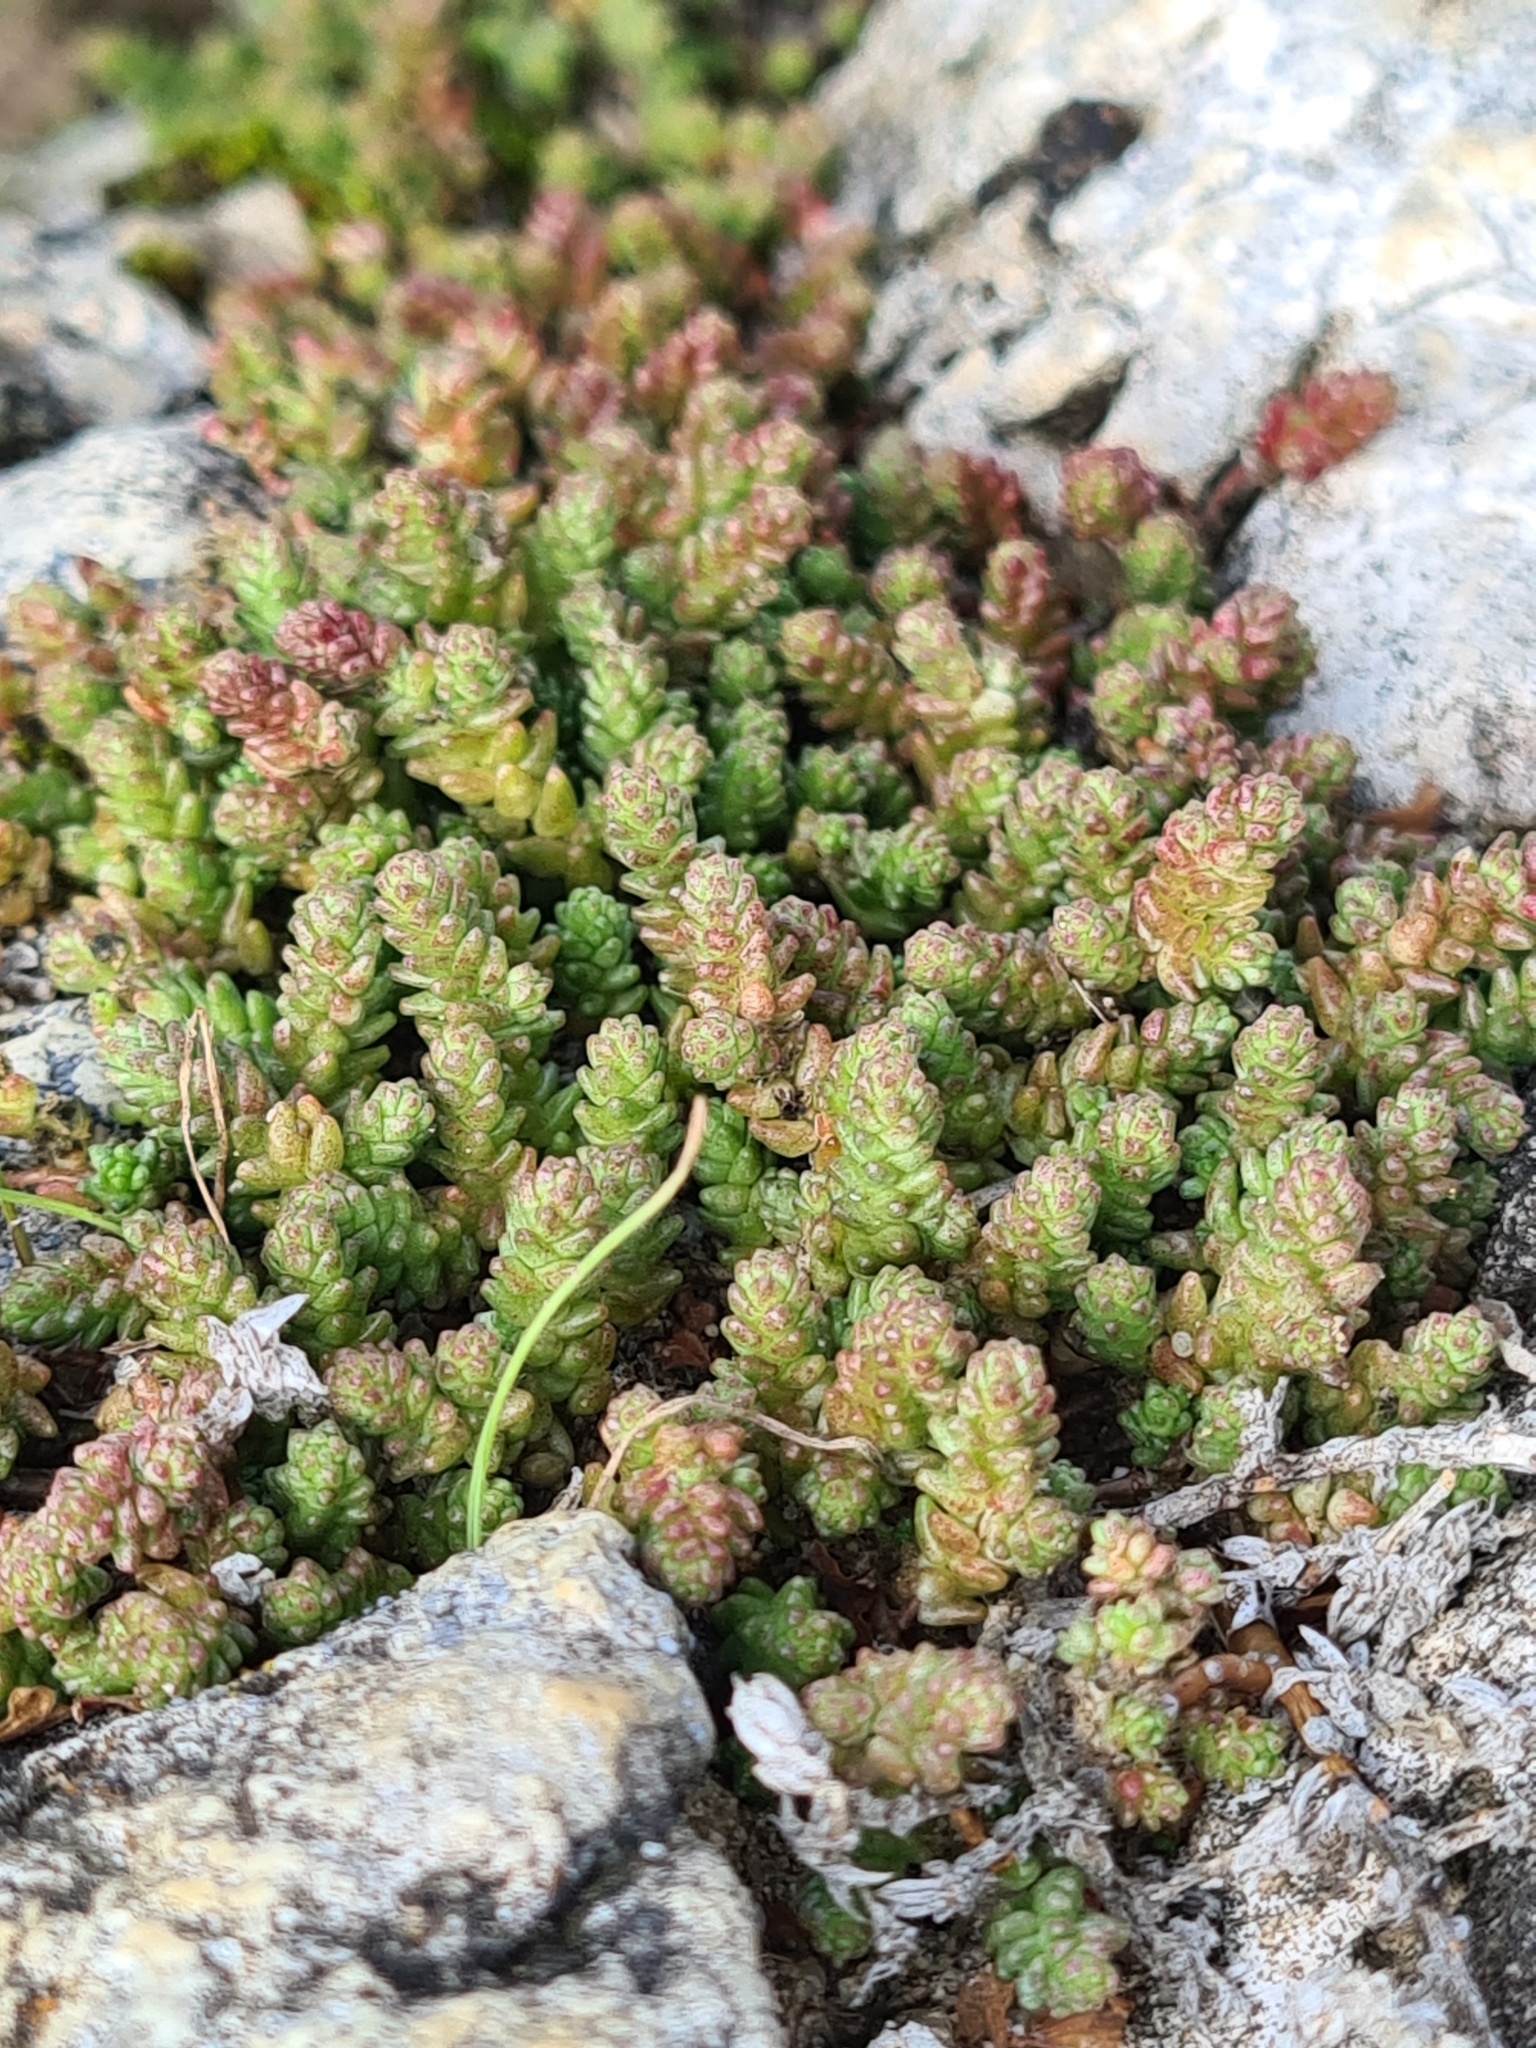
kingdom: Plantae
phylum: Tracheophyta
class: Magnoliopsida
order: Saxifragales
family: Crassulaceae
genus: Sedum
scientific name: Sedum acre
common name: Biting stonecrop
